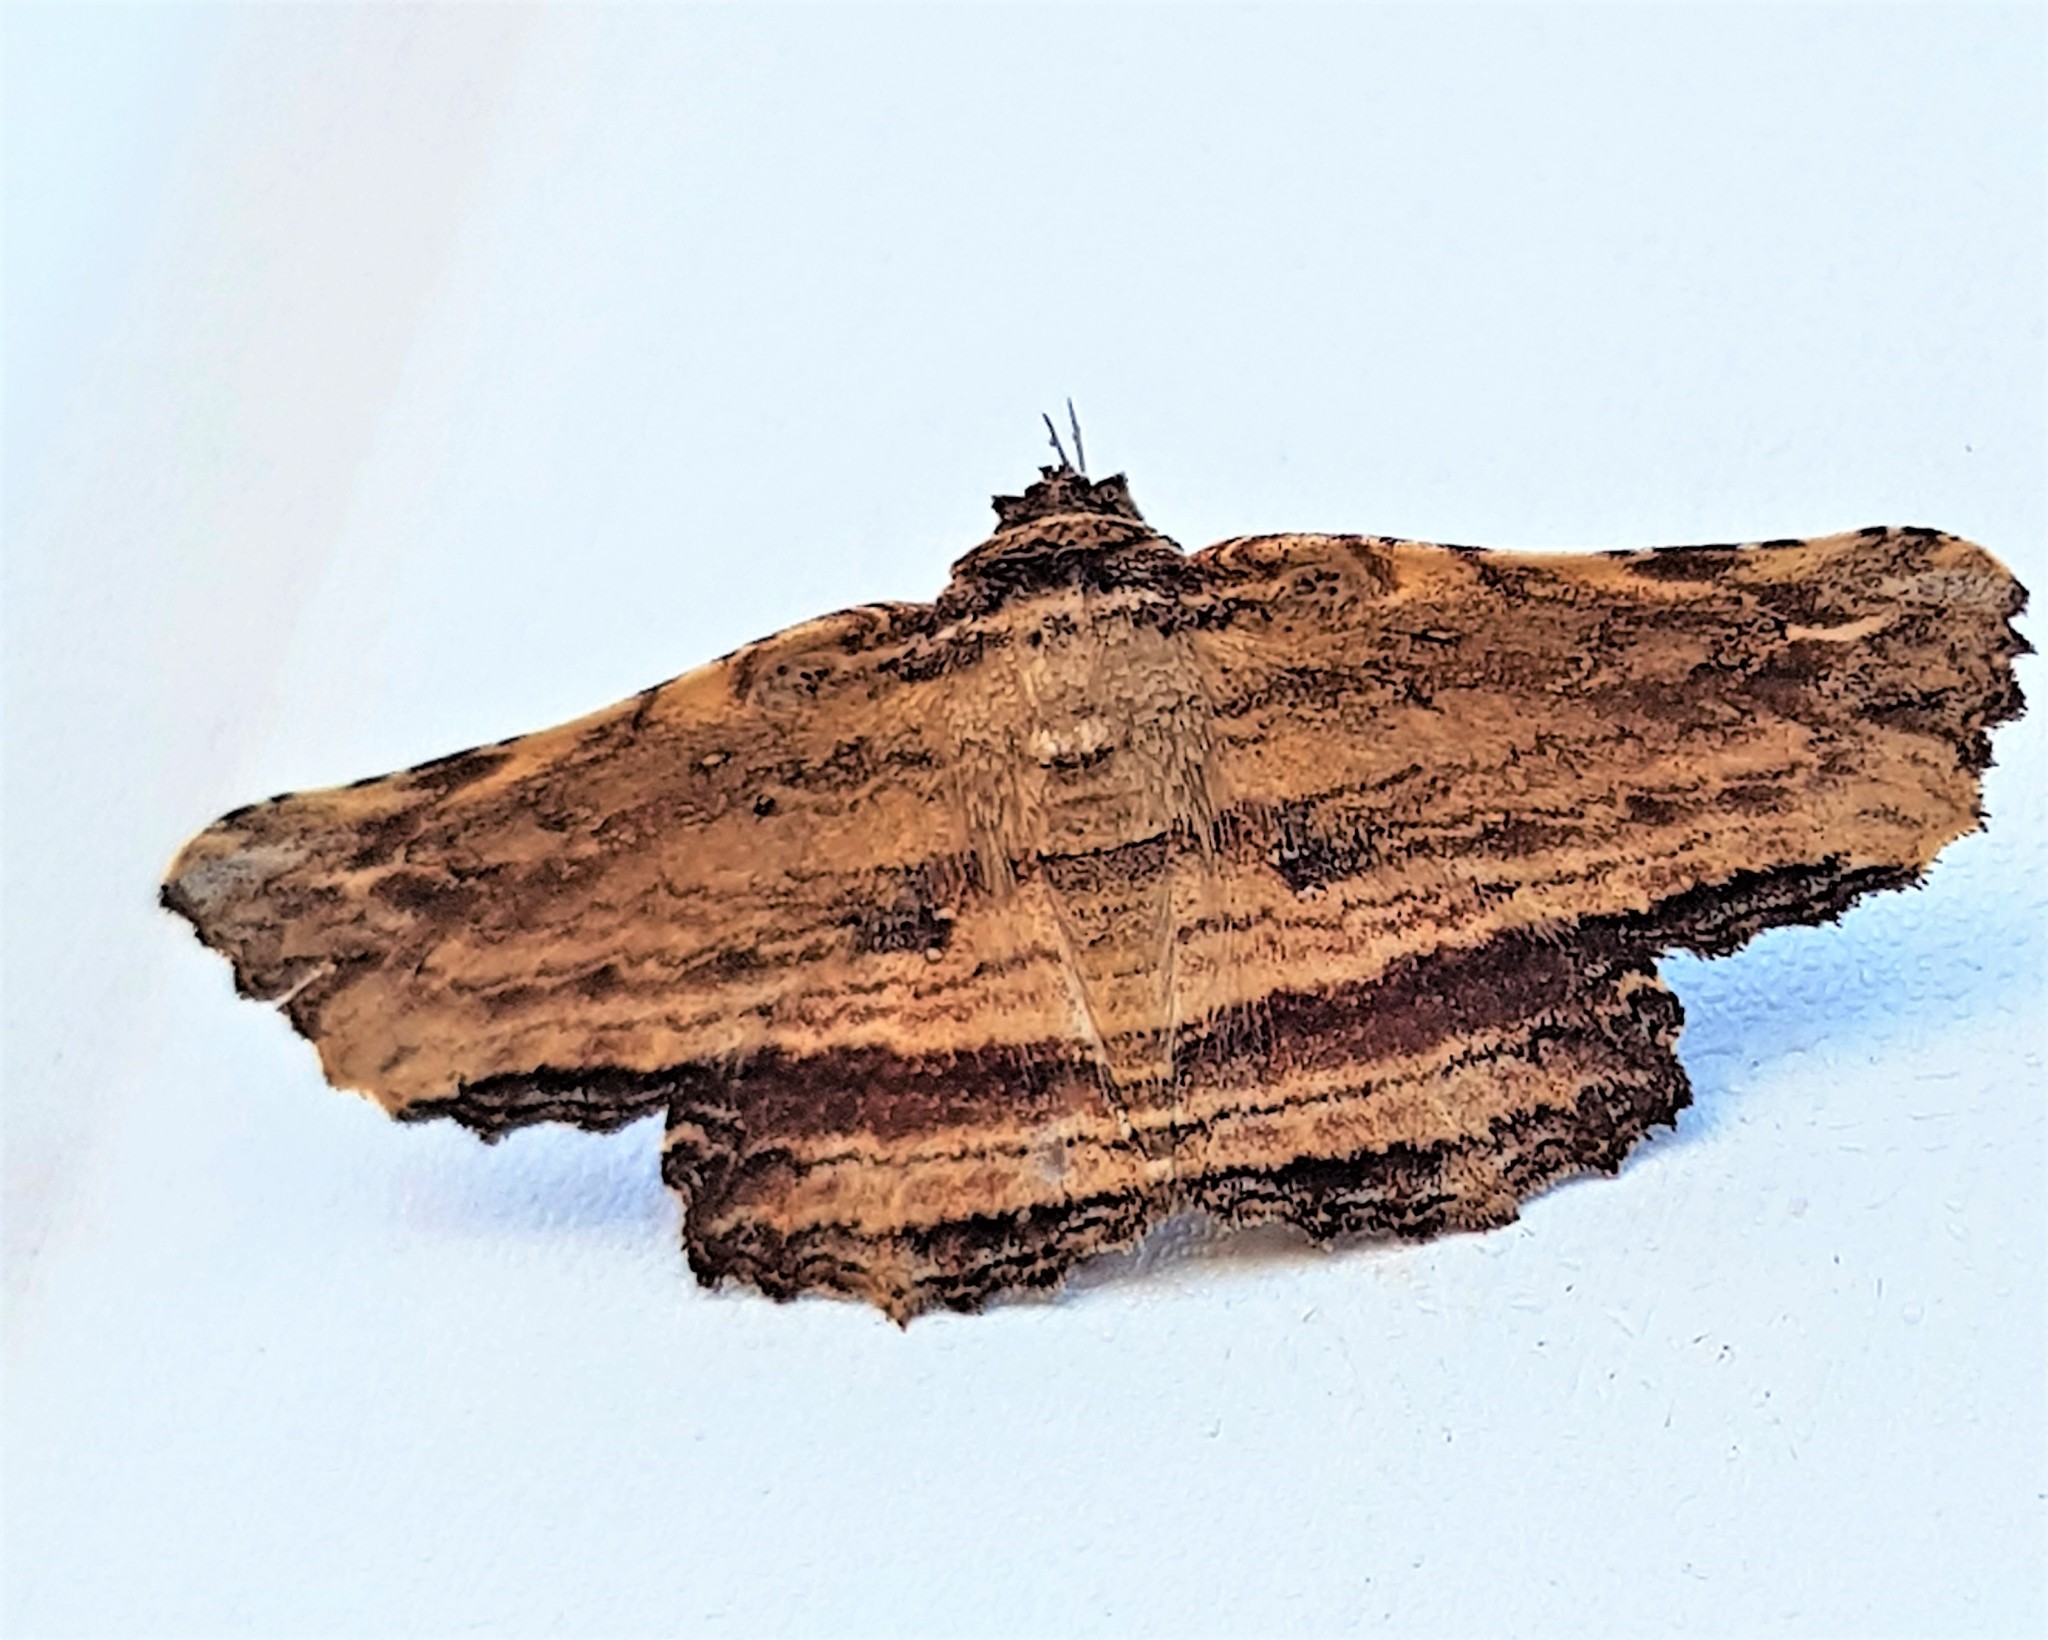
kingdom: Animalia
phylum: Arthropoda
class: Insecta
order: Lepidoptera
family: Erebidae
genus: Tyrissa
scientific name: Tyrissa bellula
